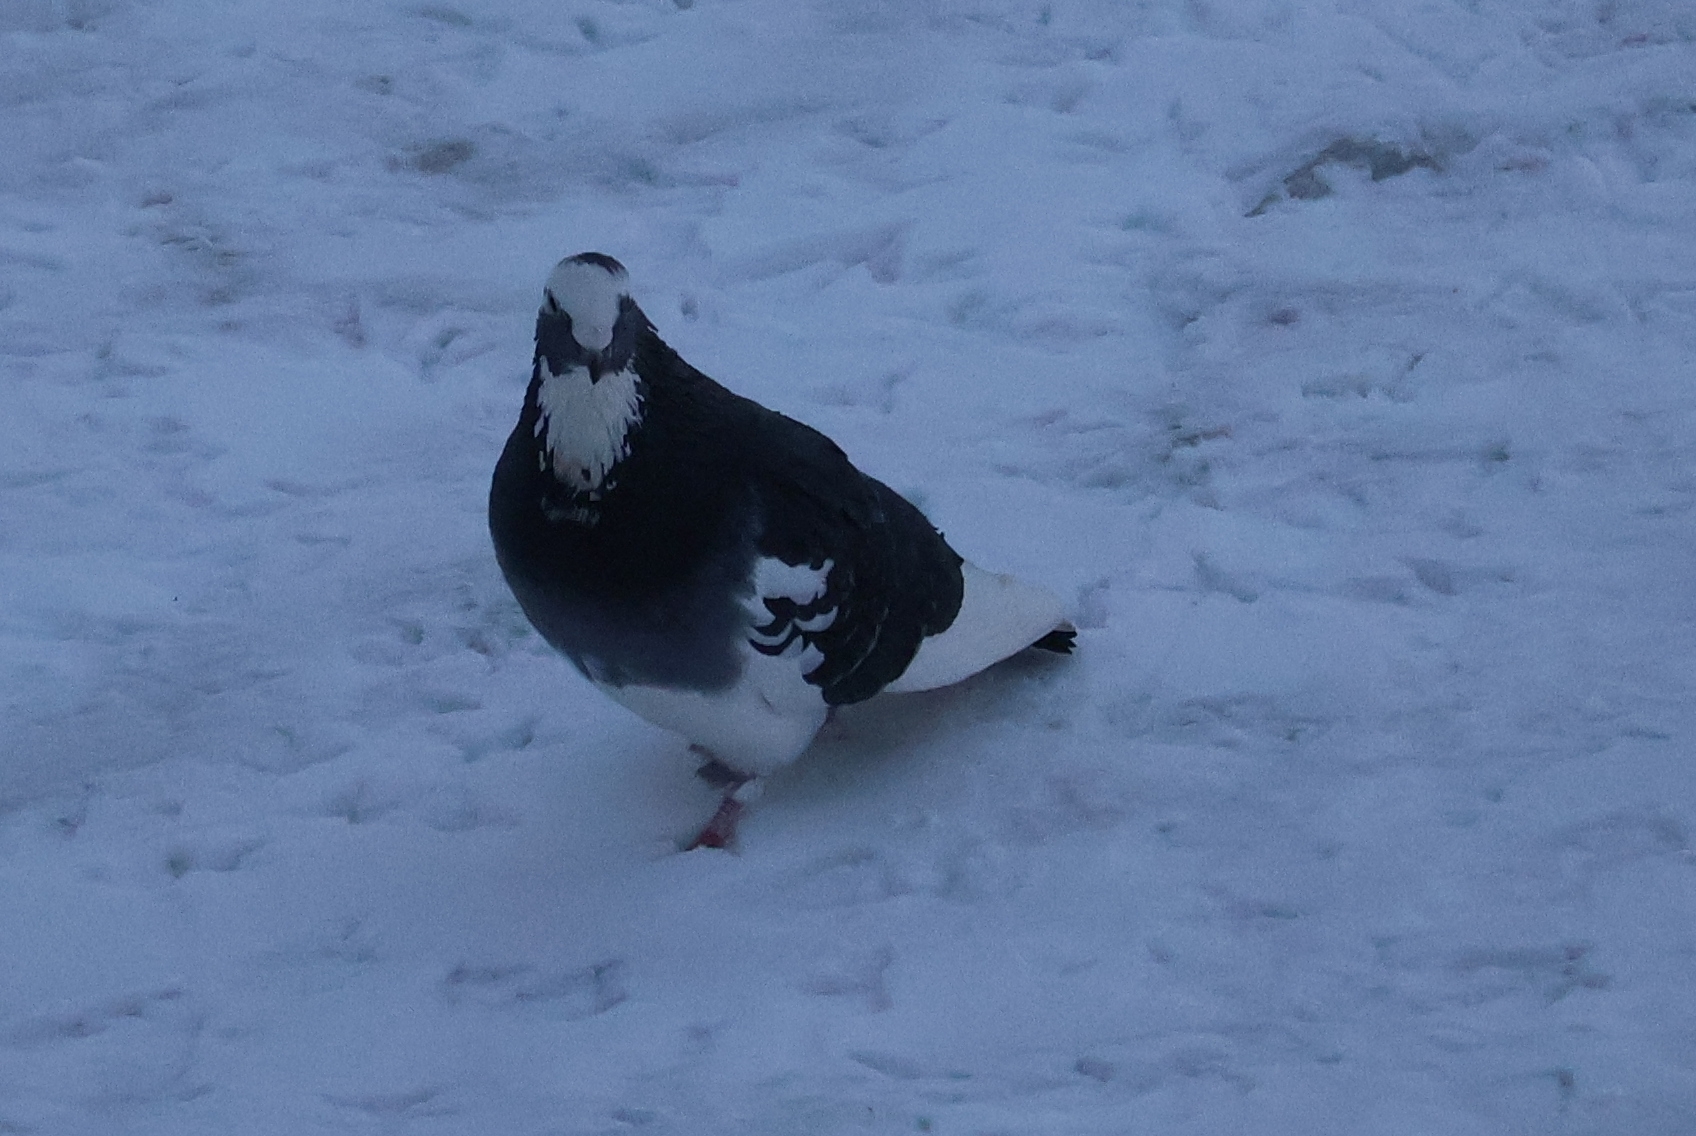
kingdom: Animalia
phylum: Chordata
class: Aves
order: Columbiformes
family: Columbidae
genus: Columba
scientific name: Columba livia
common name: Rock pigeon
